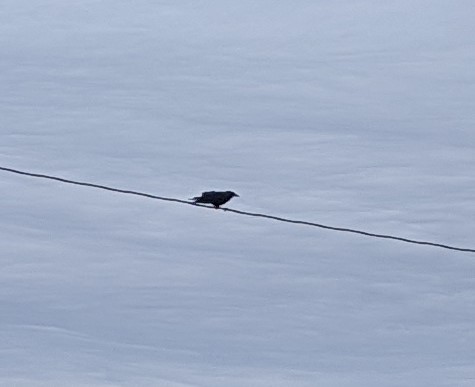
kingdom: Animalia
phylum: Chordata
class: Aves
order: Passeriformes
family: Corvidae
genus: Corvus
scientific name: Corvus brachyrhynchos
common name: American crow
